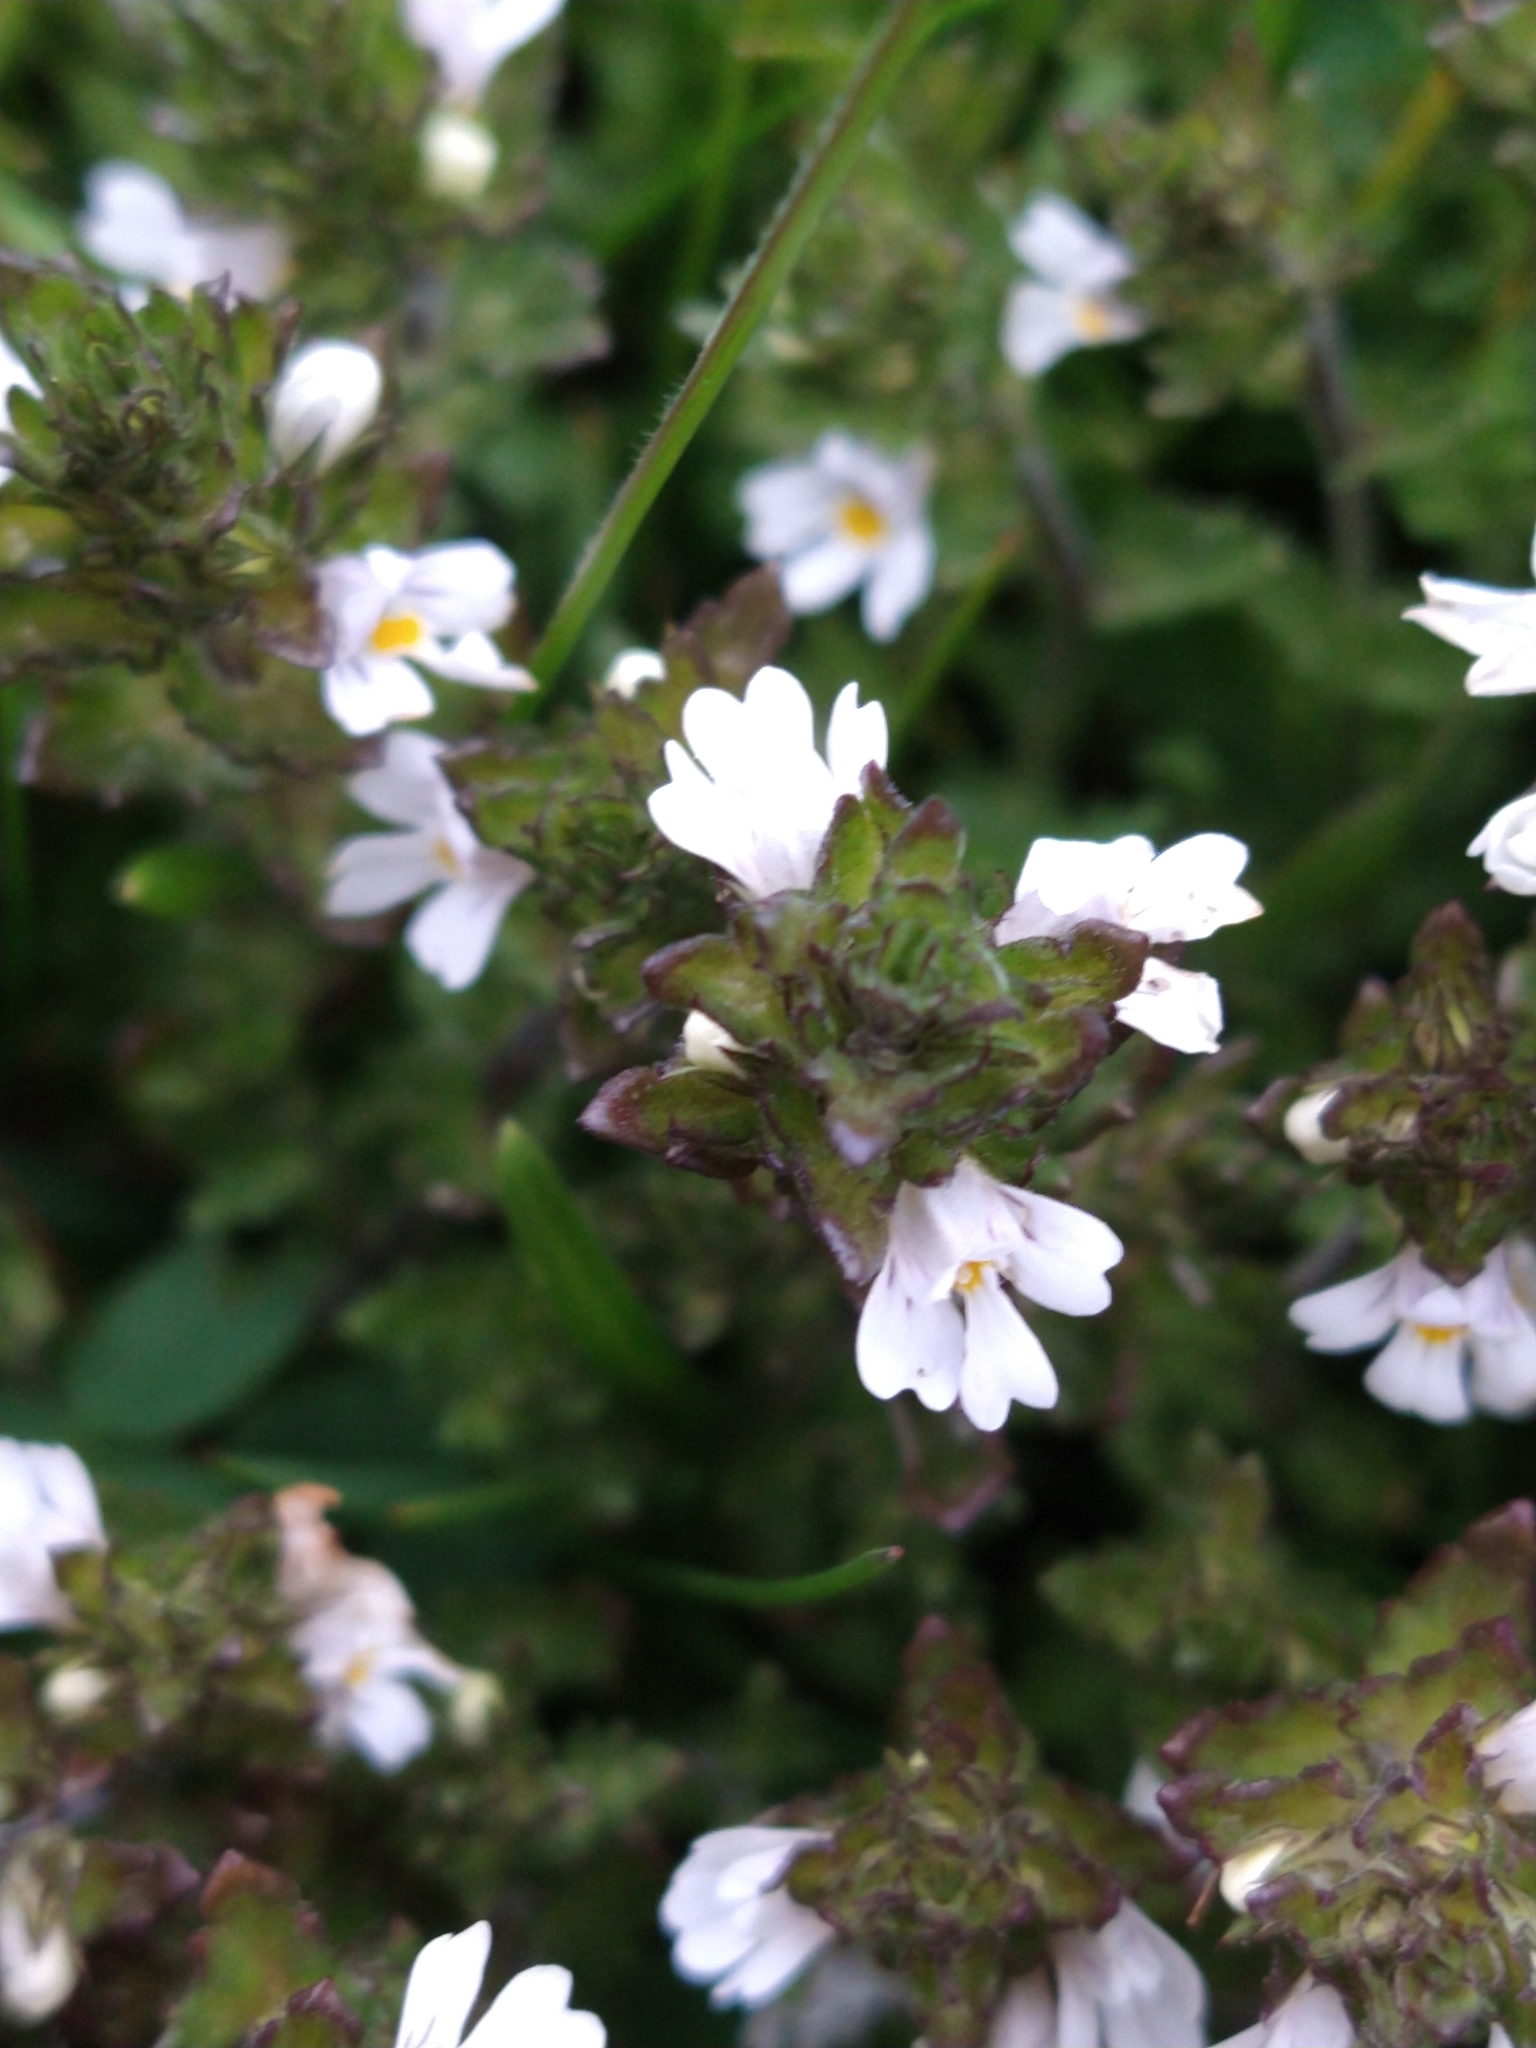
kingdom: Plantae
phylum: Tracheophyta
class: Magnoliopsida
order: Lamiales
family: Orobanchaceae
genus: Euphrasia
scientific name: Euphrasia officinalis
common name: Eyebright
